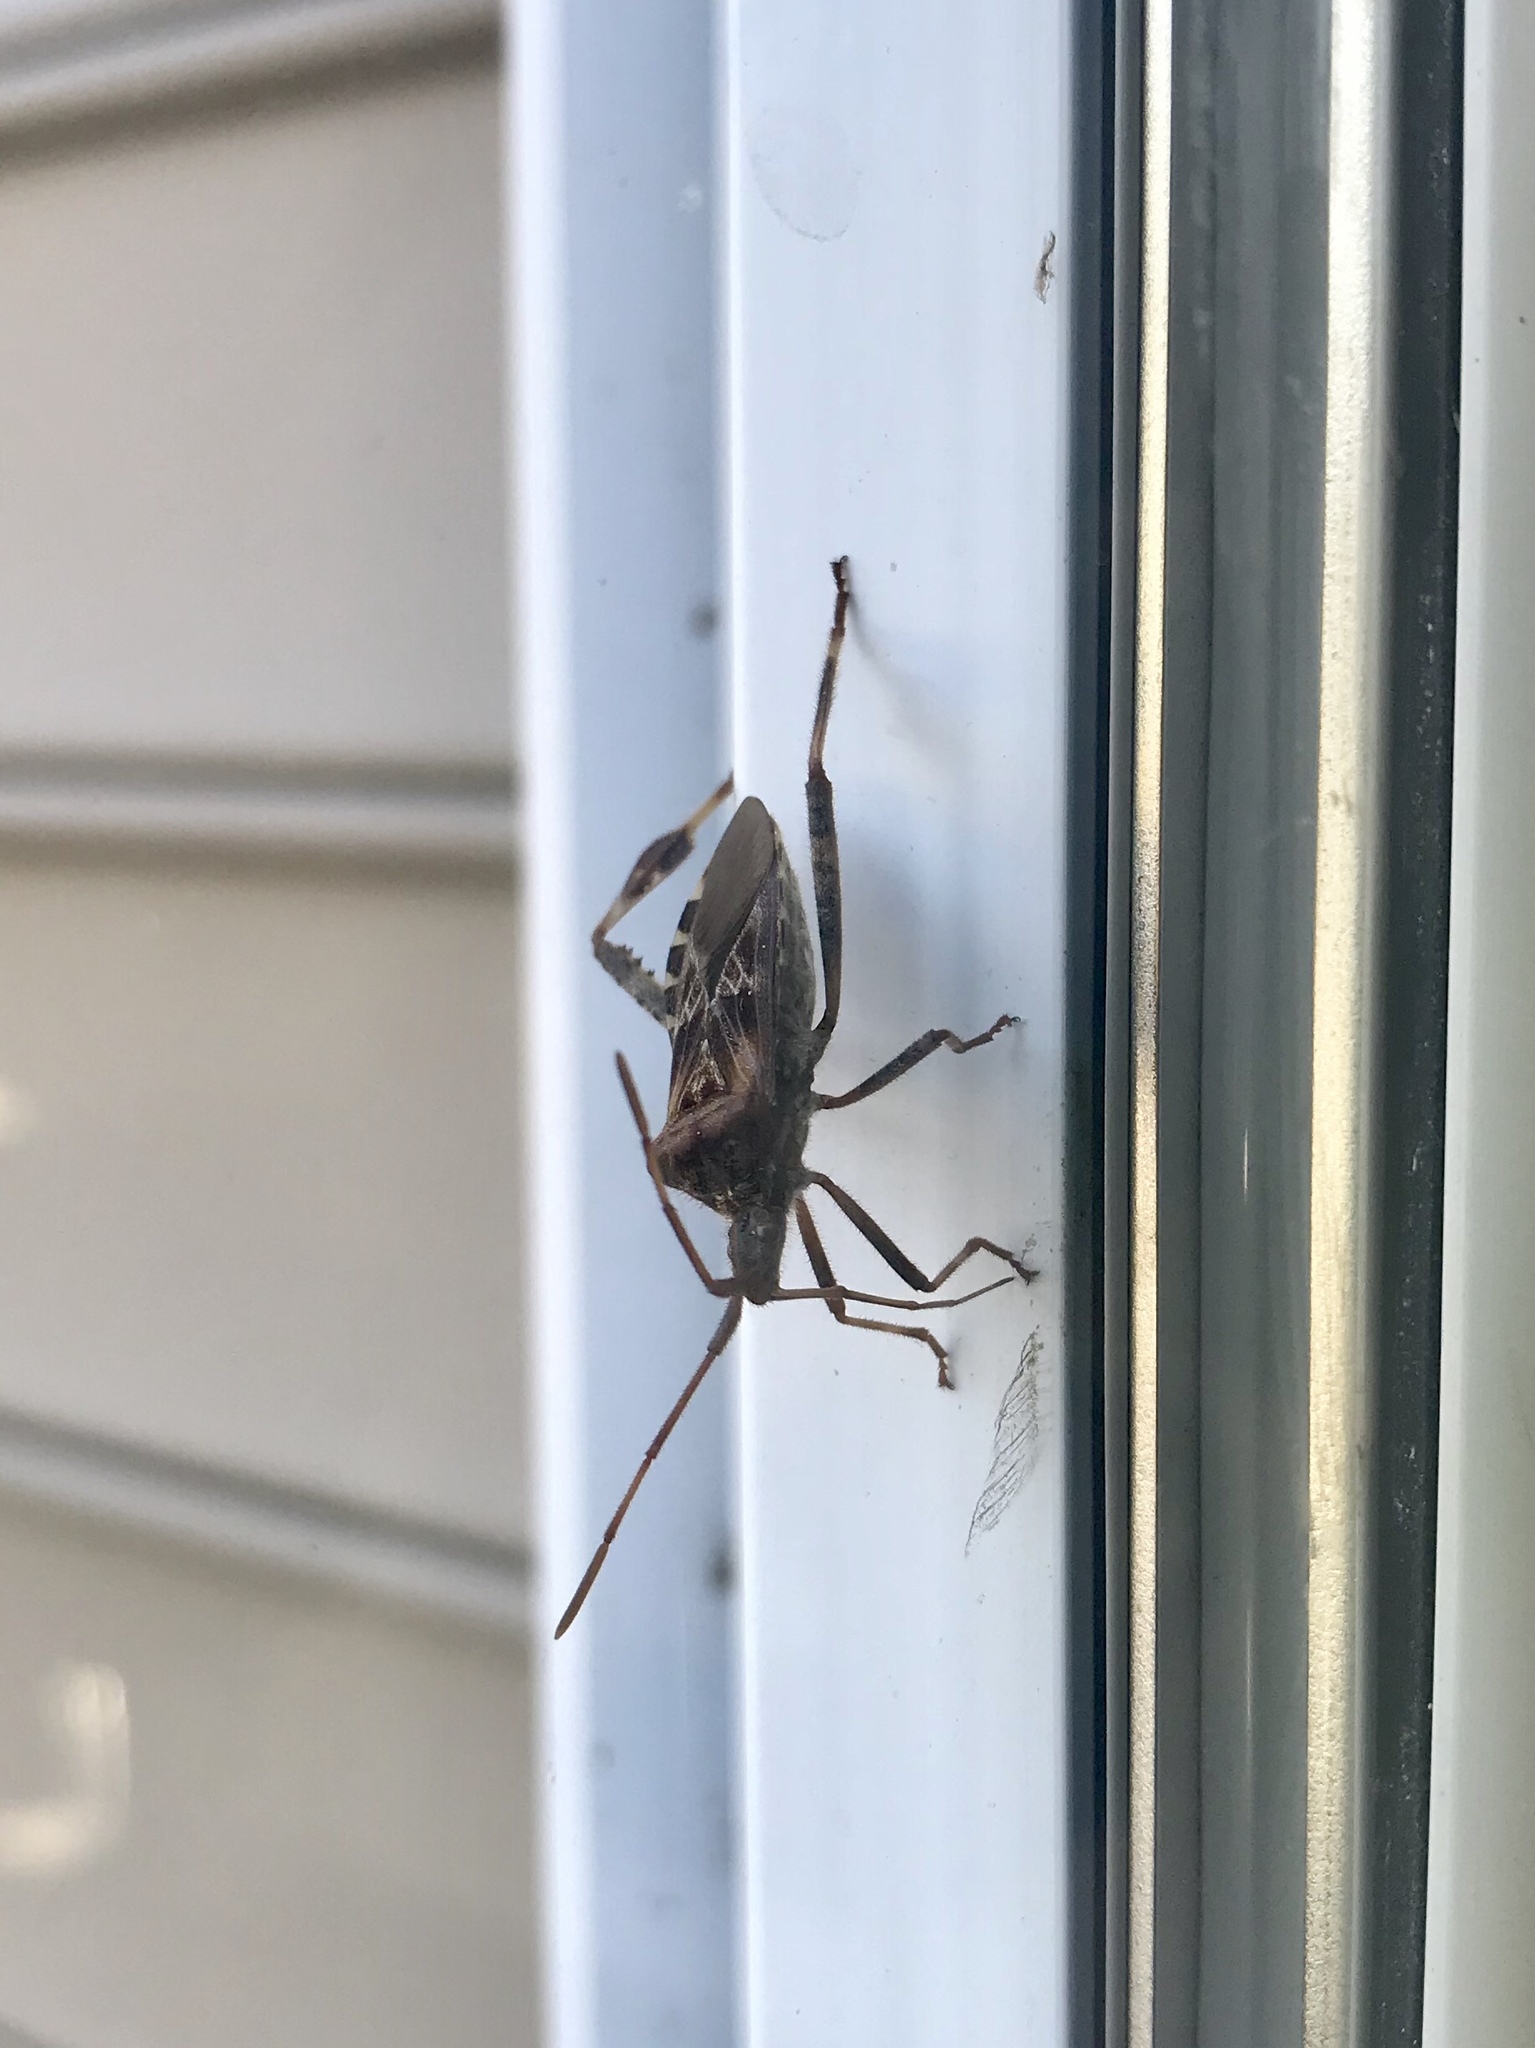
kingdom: Animalia
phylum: Arthropoda
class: Insecta
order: Hemiptera
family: Coreidae
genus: Leptoglossus
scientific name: Leptoglossus occidentalis
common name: Western conifer-seed bug
